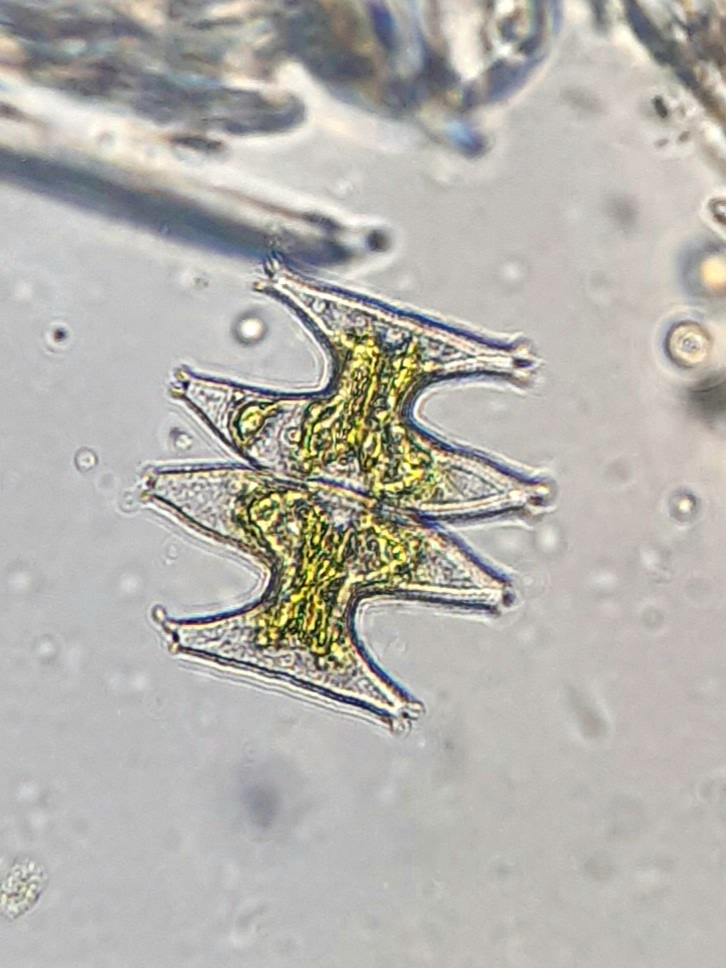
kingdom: Plantae
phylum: Charophyta
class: Zygnematophyceae
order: Zygnematales
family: Desmidiaceae
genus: Micrasterias
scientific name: Micrasterias pinnatifila
